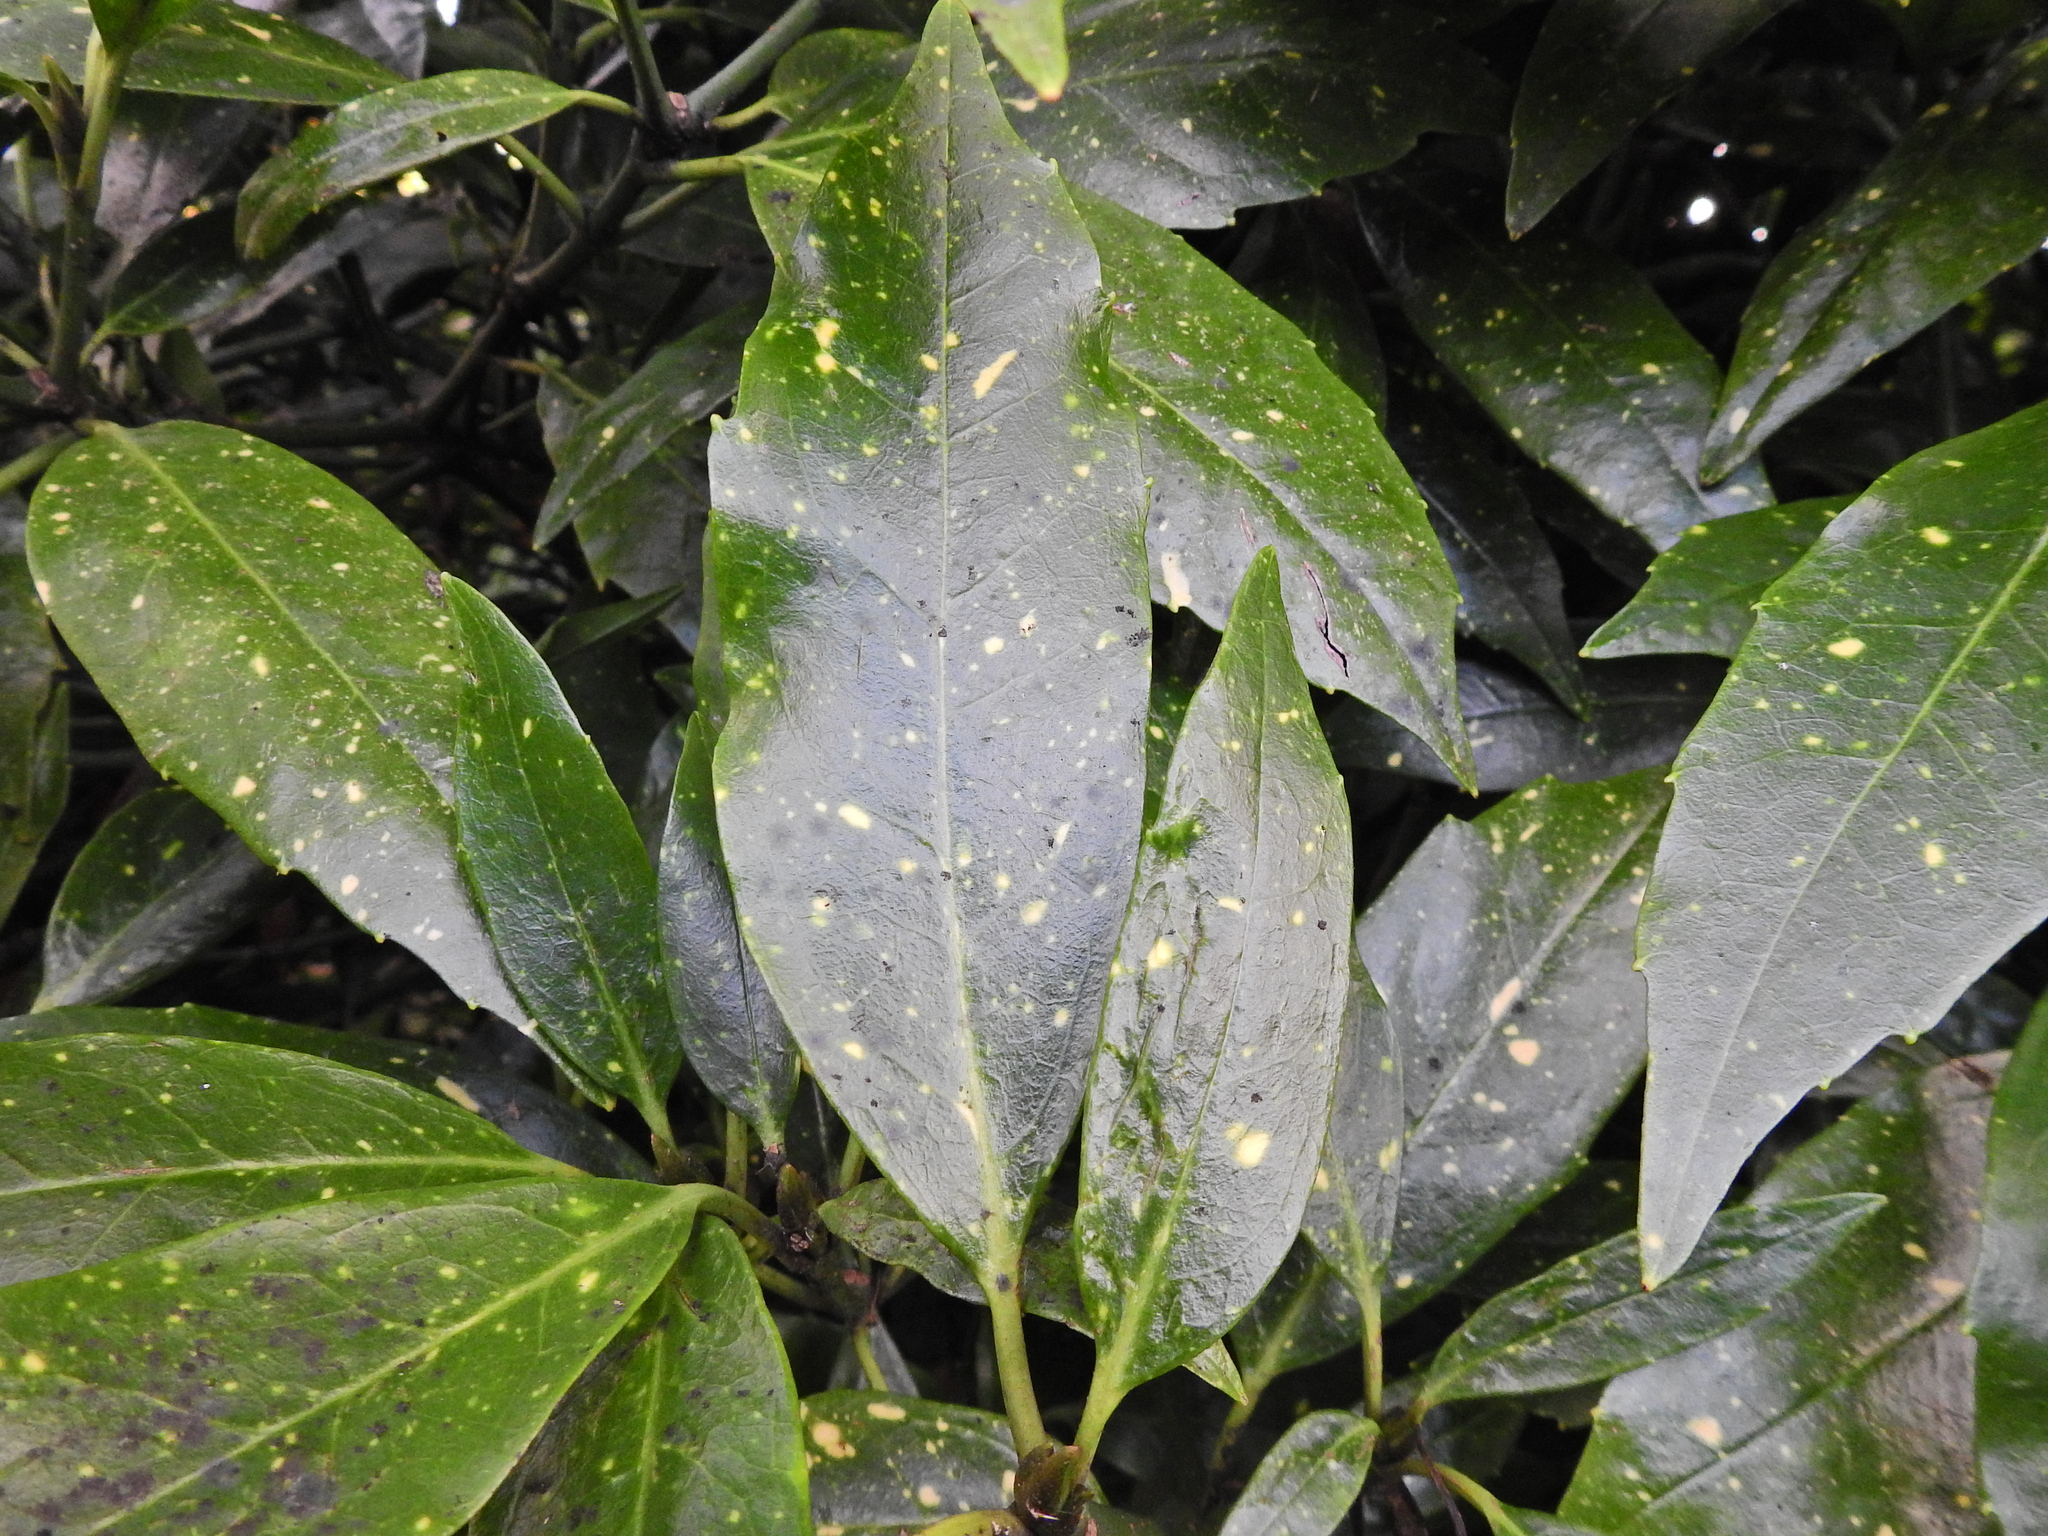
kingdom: Plantae
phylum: Tracheophyta
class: Magnoliopsida
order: Garryales
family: Garryaceae
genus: Aucuba
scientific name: Aucuba japonica
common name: Spotted-laurel
